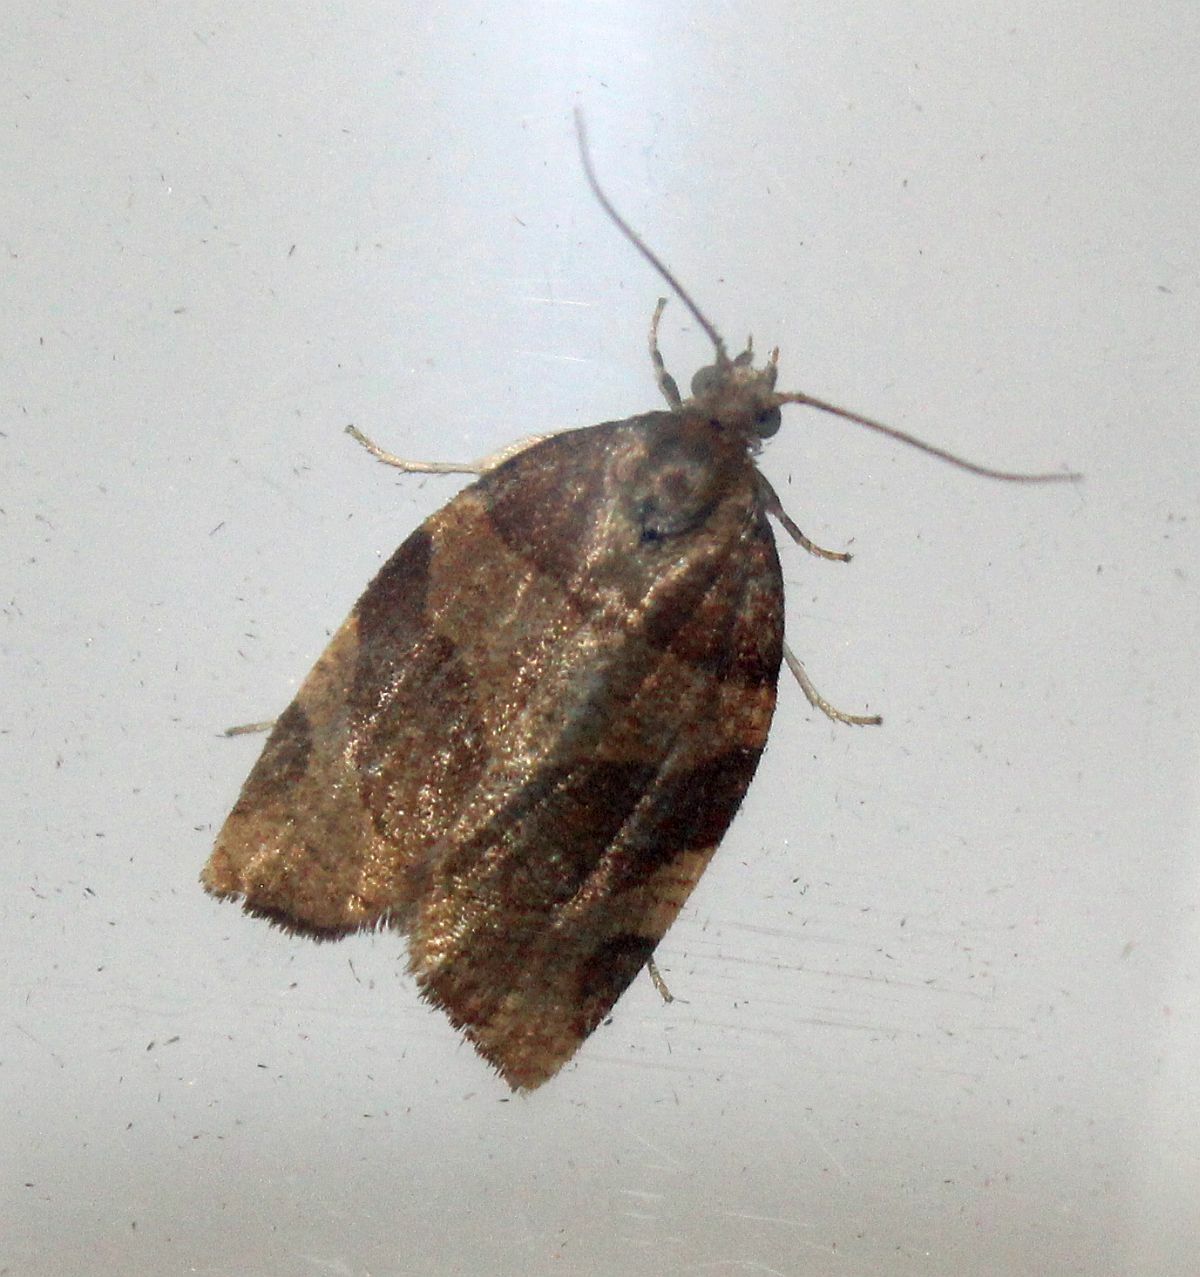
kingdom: Animalia
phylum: Arthropoda
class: Insecta
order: Lepidoptera
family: Tortricidae
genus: Pandemis
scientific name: Pandemis cerasana
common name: Barred fruit-tree tortrix
